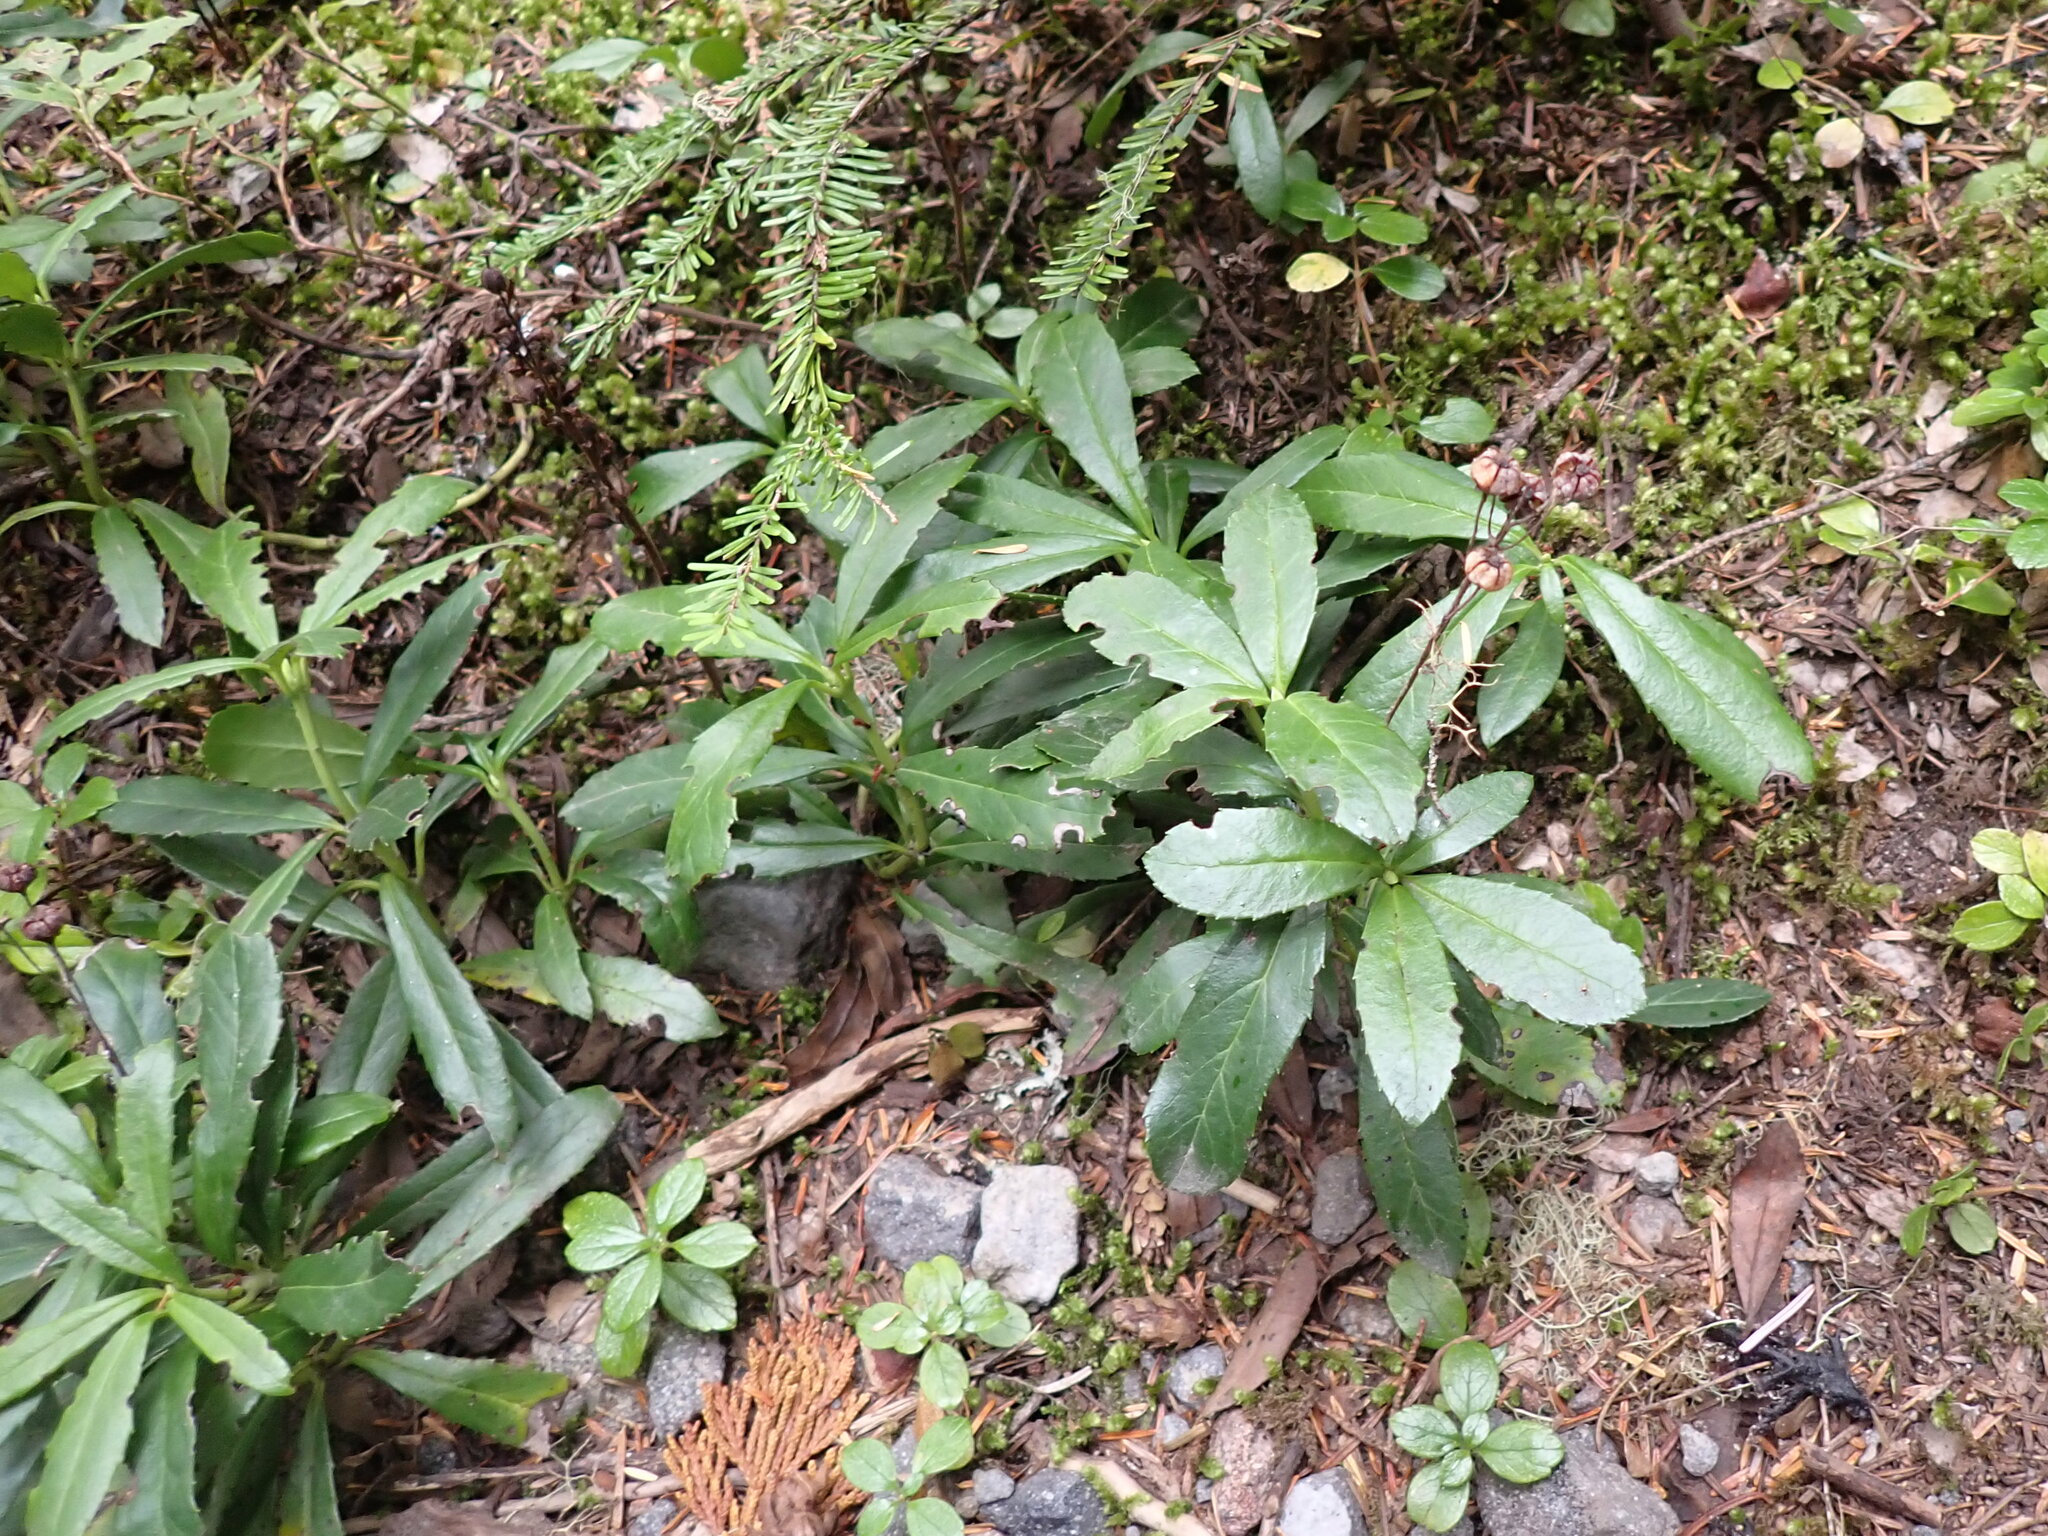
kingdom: Plantae
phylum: Tracheophyta
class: Magnoliopsida
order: Ericales
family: Ericaceae
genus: Chimaphila
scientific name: Chimaphila umbellata
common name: Pipsissewa
